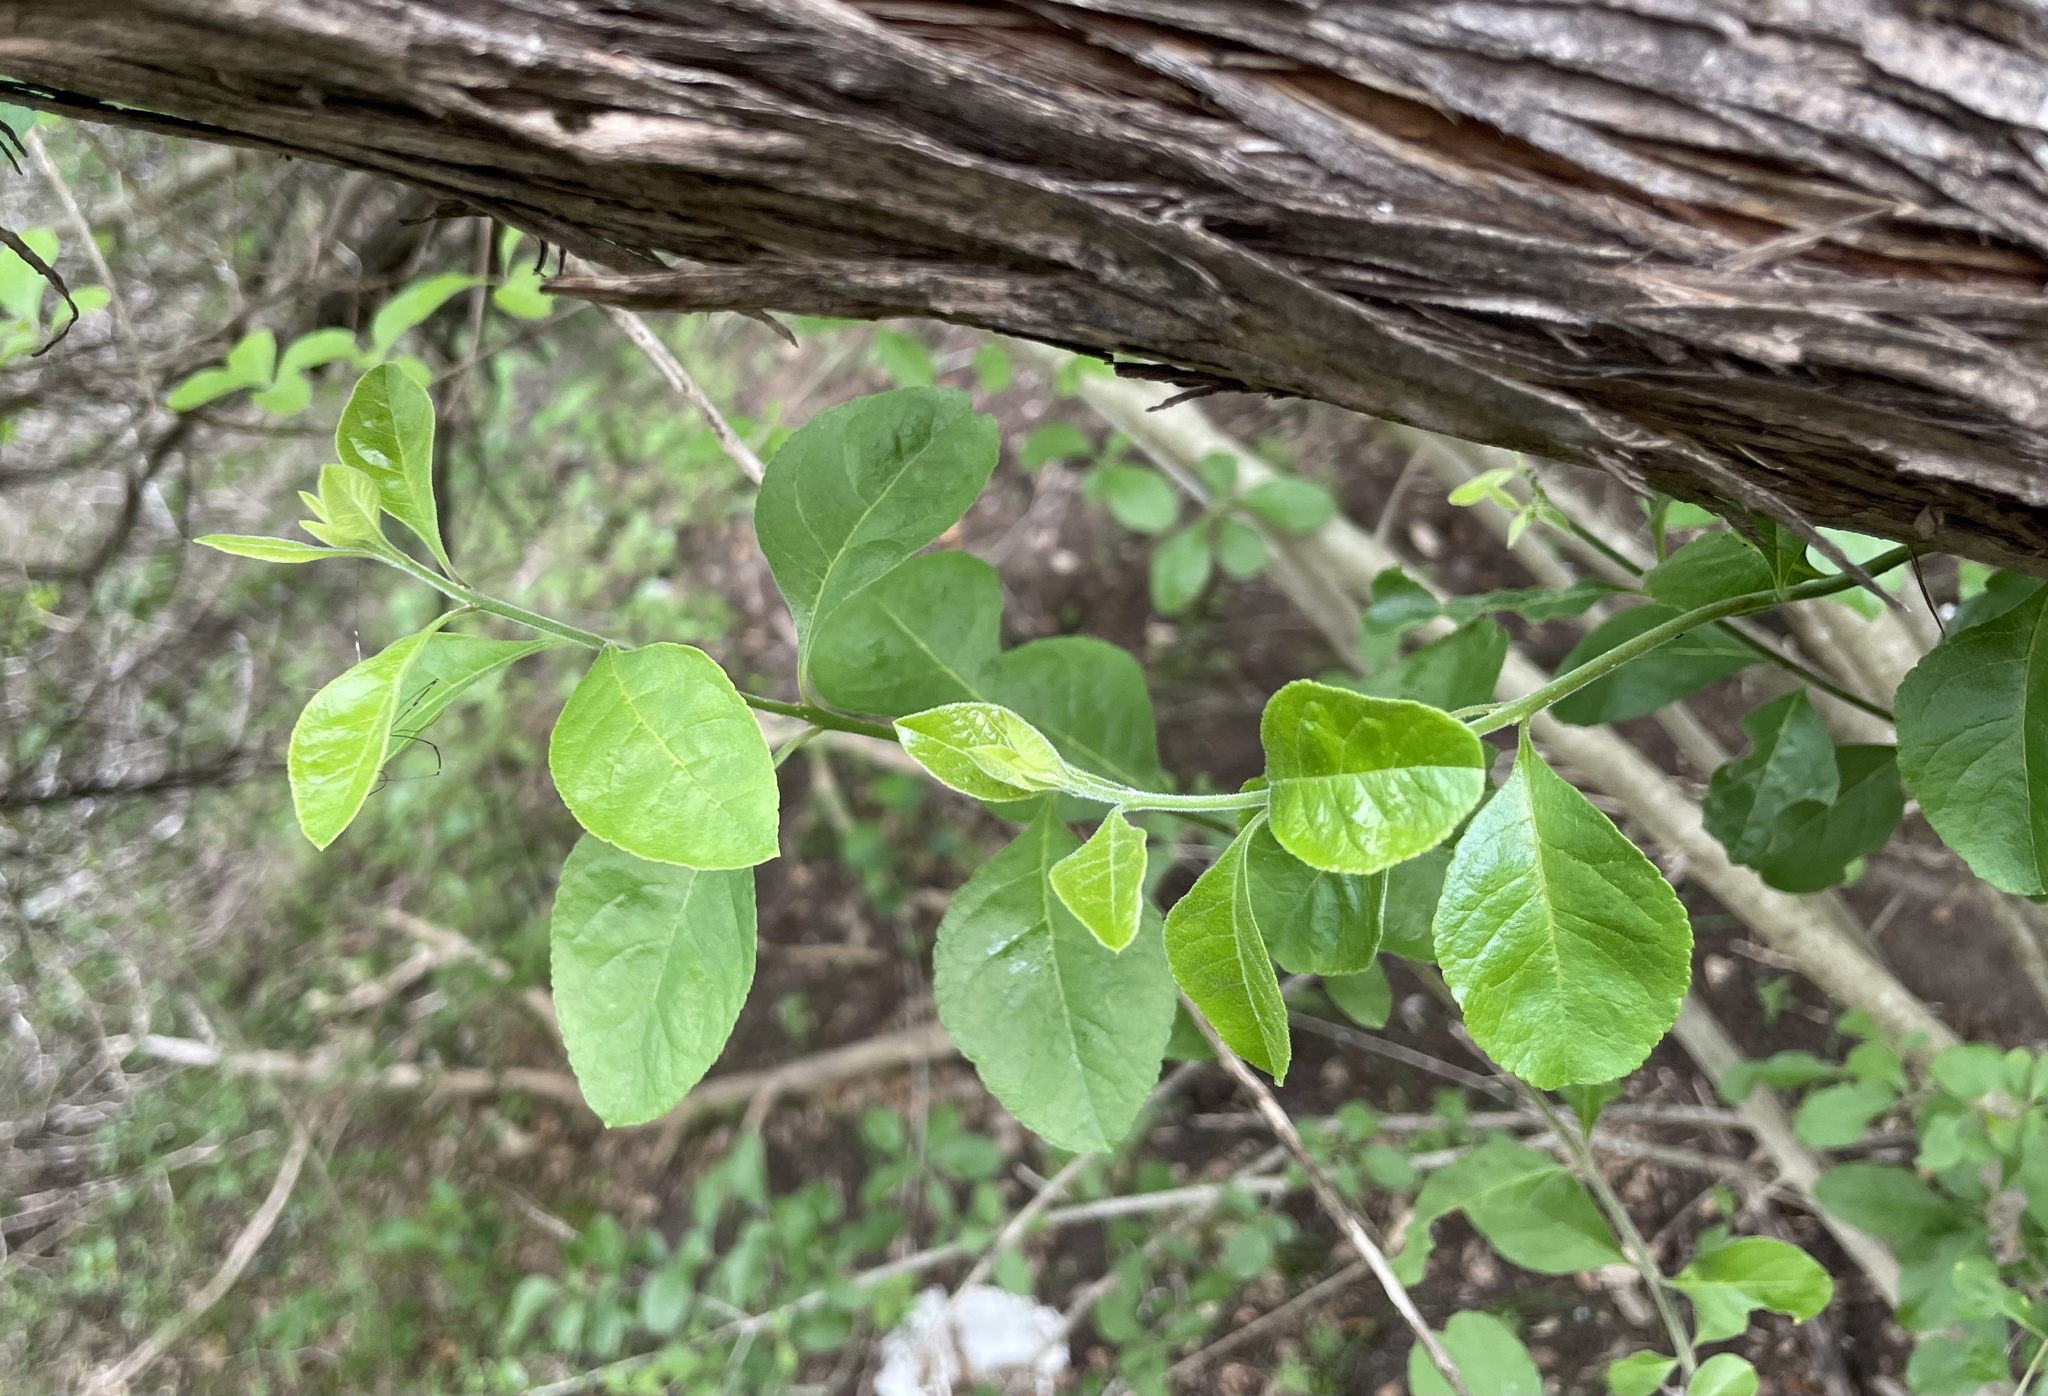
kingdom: Plantae
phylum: Tracheophyta
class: Magnoliopsida
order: Lamiales
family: Oleaceae
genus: Forestiera
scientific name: Forestiera pubescens
